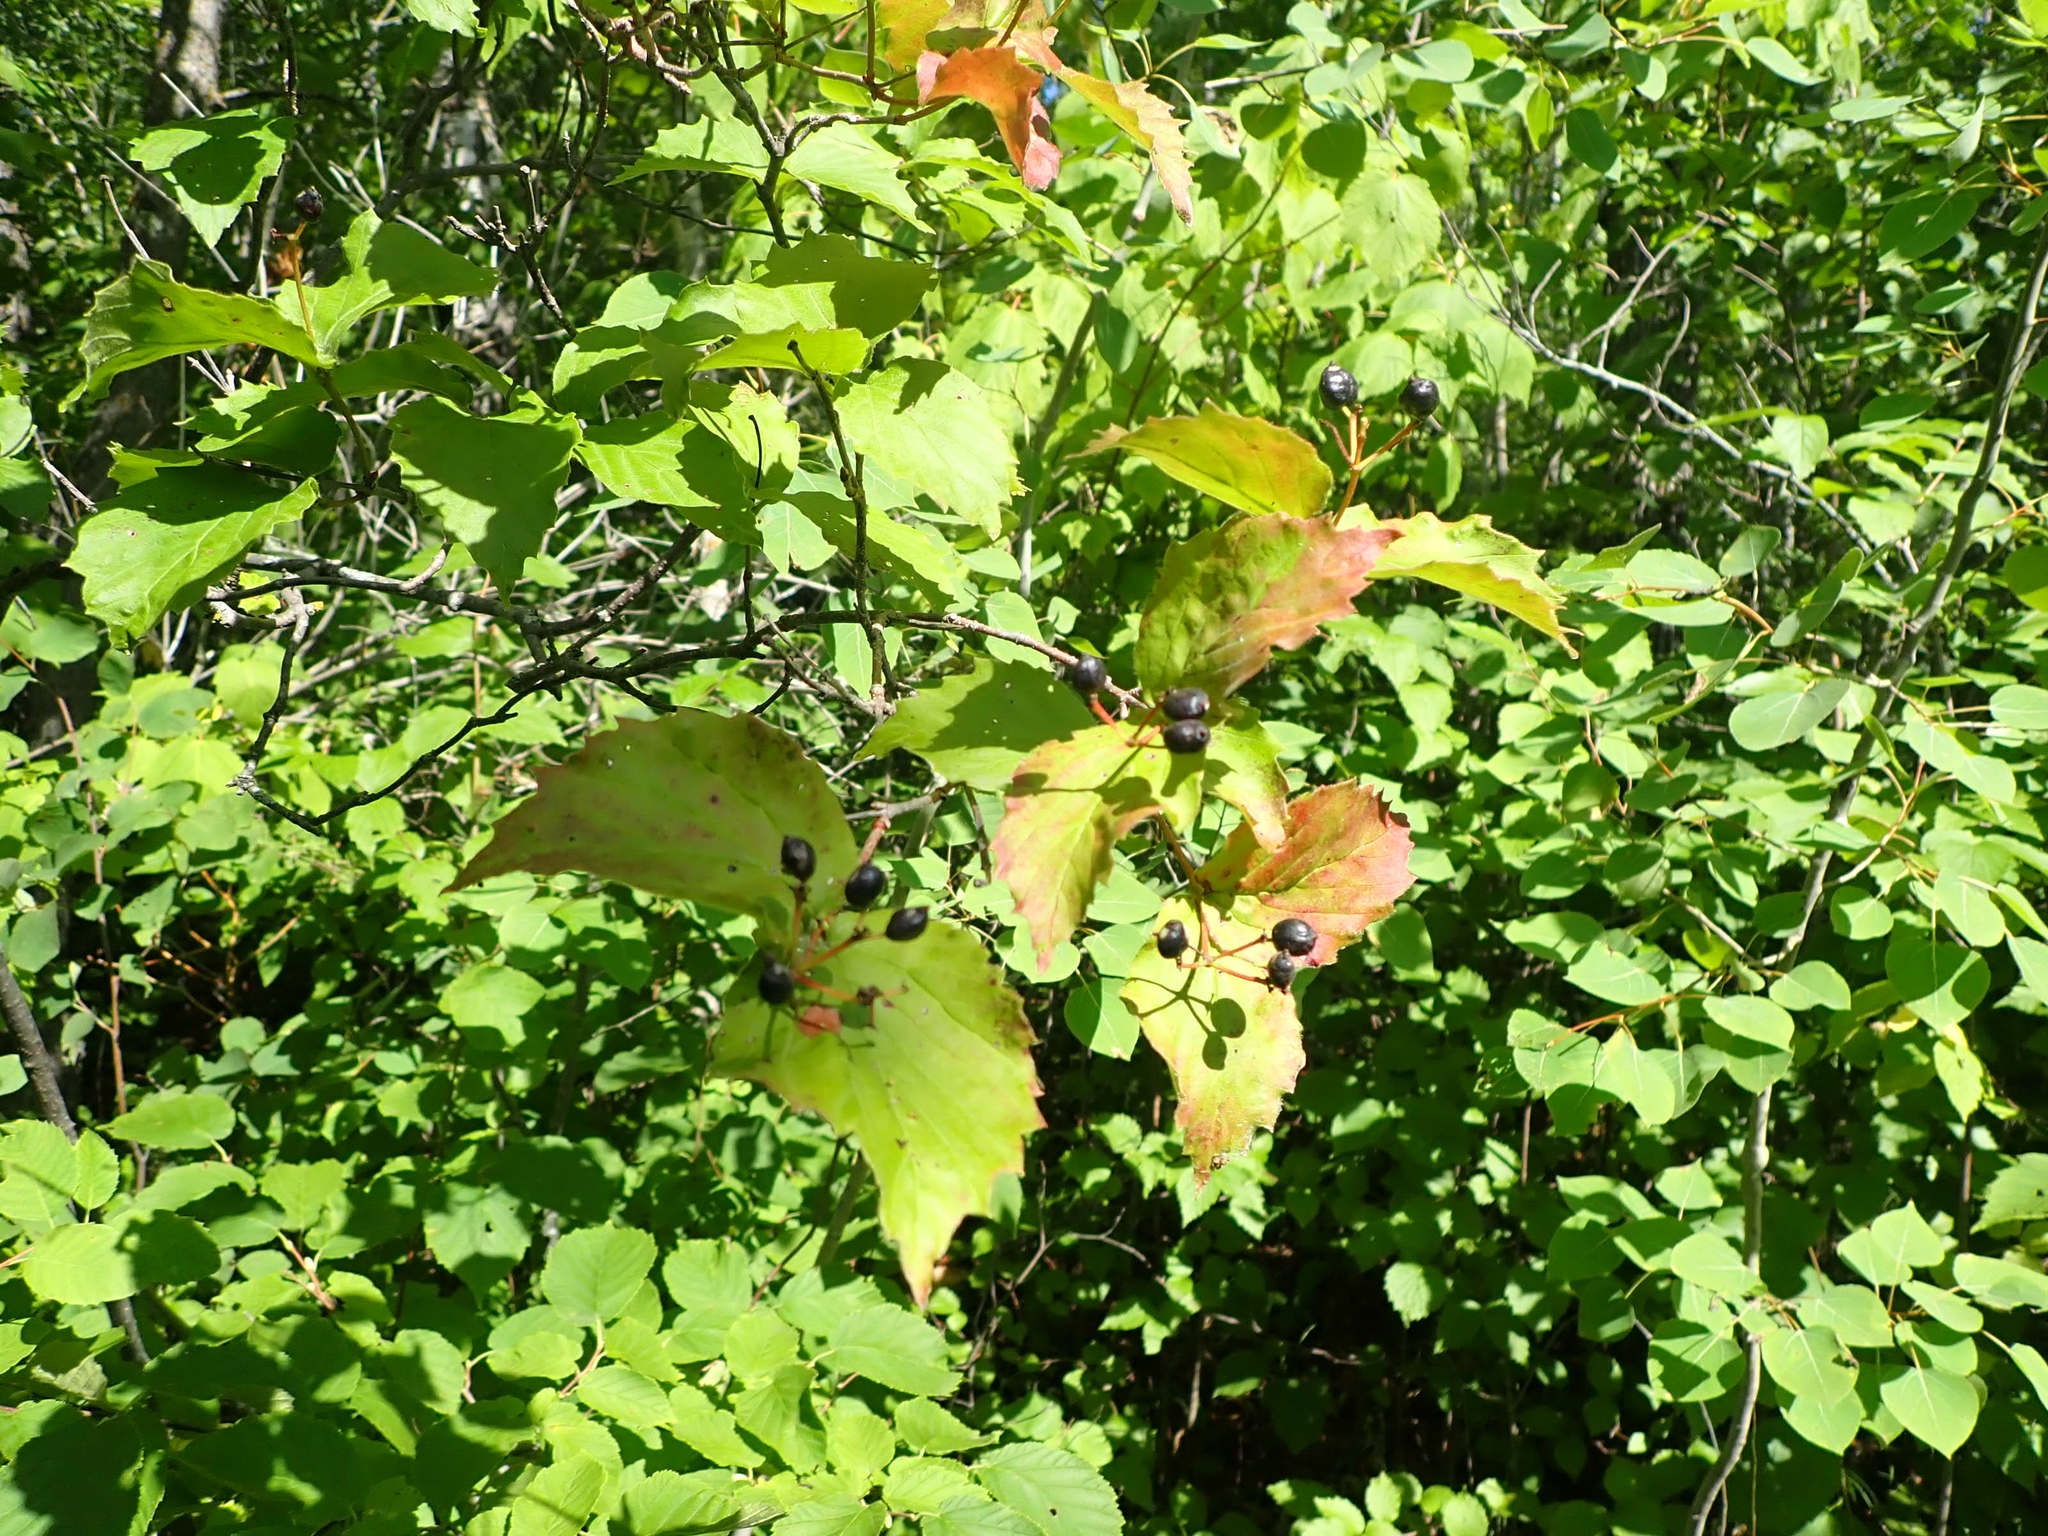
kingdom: Plantae
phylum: Tracheophyta
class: Magnoliopsida
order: Dipsacales
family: Viburnaceae
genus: Viburnum
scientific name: Viburnum rafinesqueanum
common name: Downy arrow-wood
